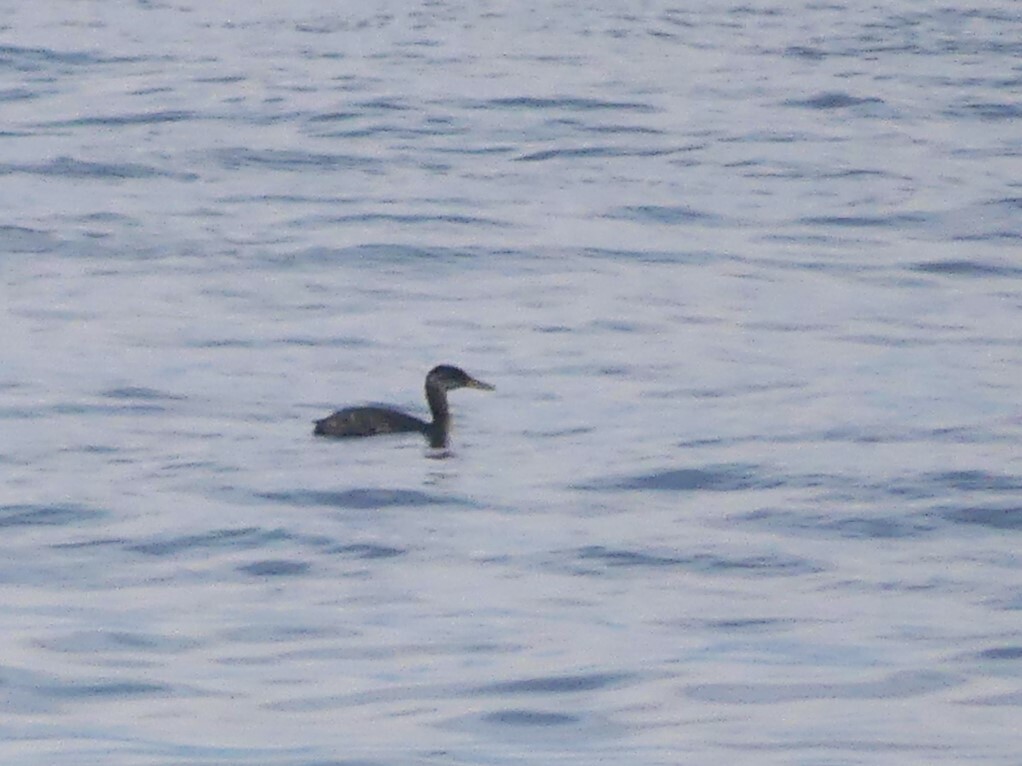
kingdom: Animalia
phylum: Chordata
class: Aves
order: Podicipediformes
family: Podicipedidae
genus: Podiceps
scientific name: Podiceps grisegena
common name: Red-necked grebe
